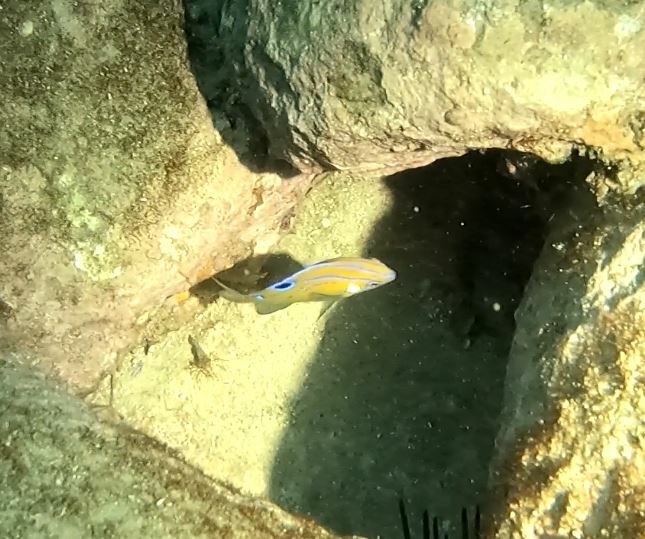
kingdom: Animalia
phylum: Chordata
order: Perciformes
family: Pomacentridae
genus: Parma
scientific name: Parma microlepis
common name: White-ear
